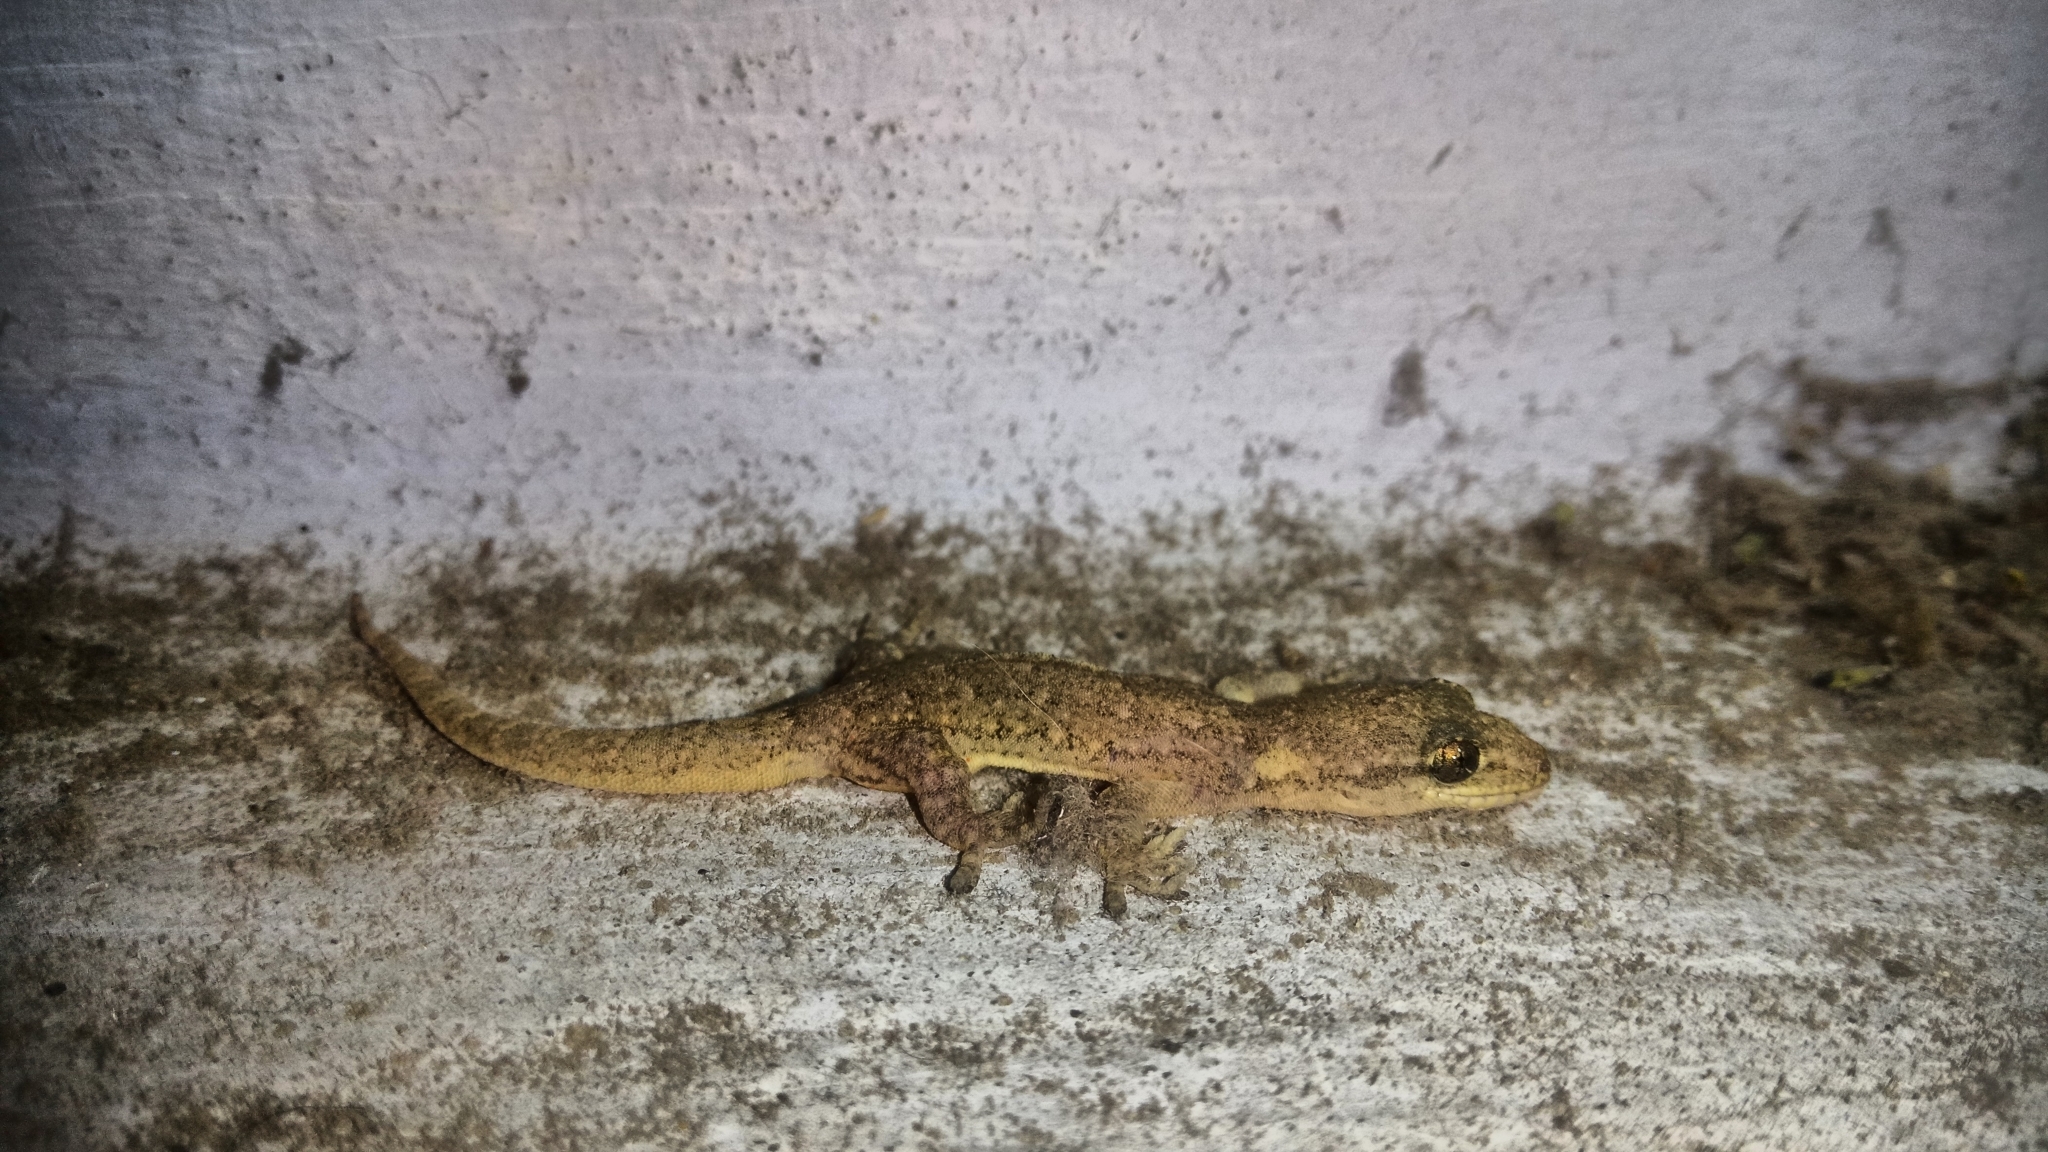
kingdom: Animalia
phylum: Chordata
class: Squamata
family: Gekkonidae
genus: Hemidactylus
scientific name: Hemidactylus aquilonius
